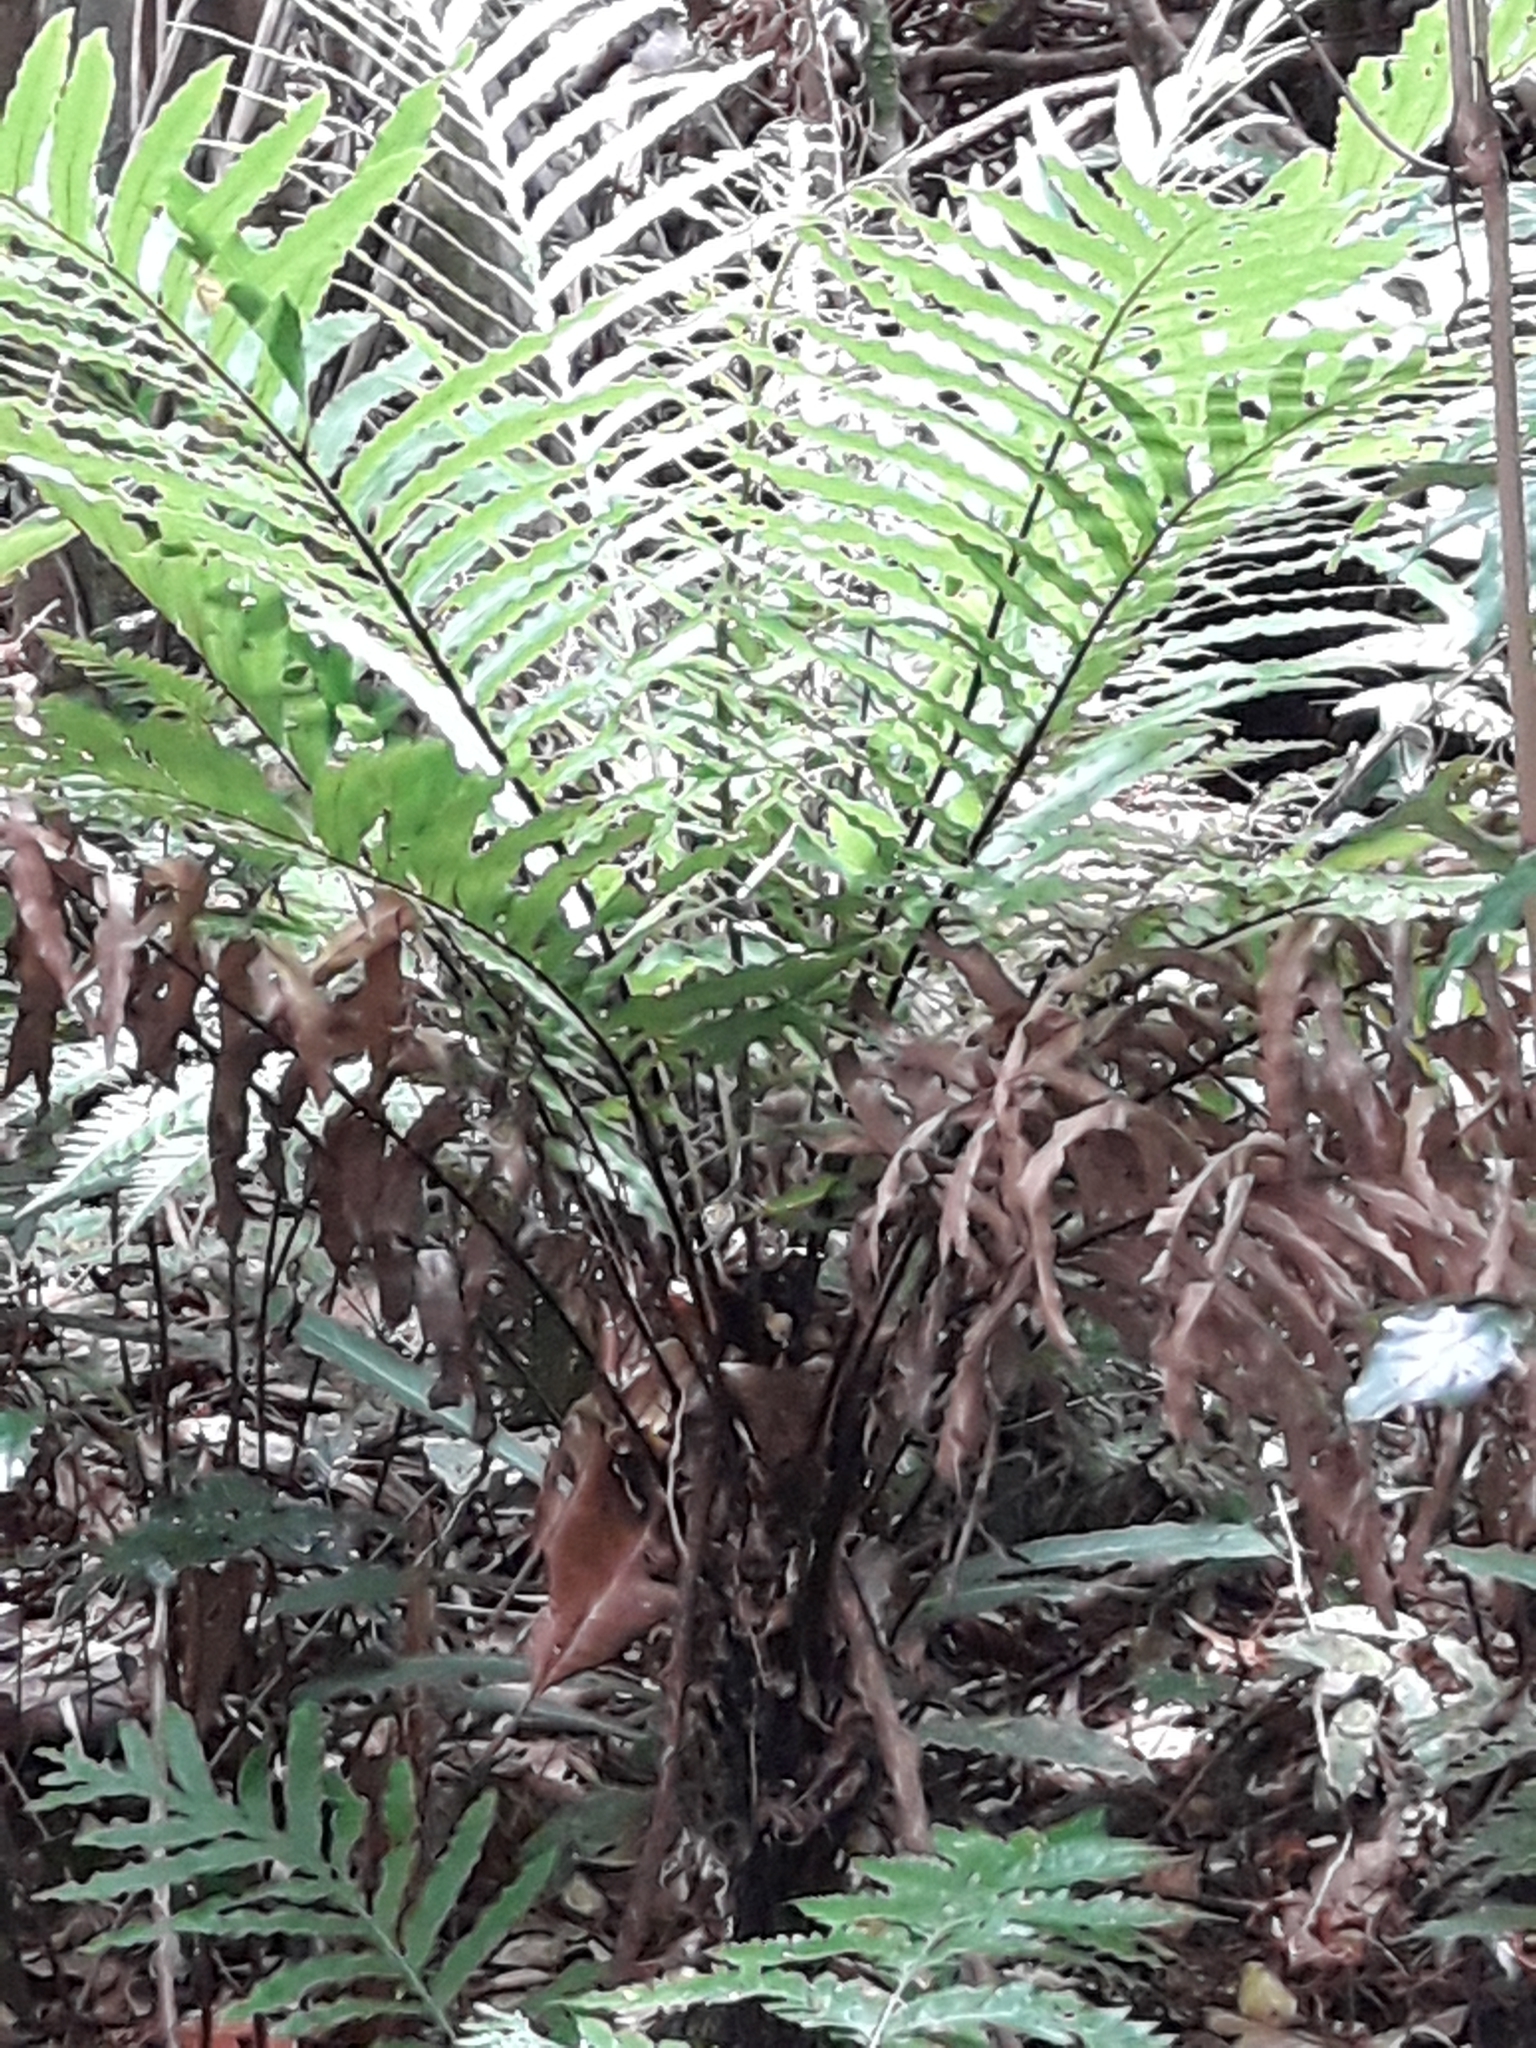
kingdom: Plantae
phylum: Tracheophyta
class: Polypodiopsida
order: Polypodiales
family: Blechnaceae
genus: Oceaniopteris
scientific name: Oceaniopteris gibba
